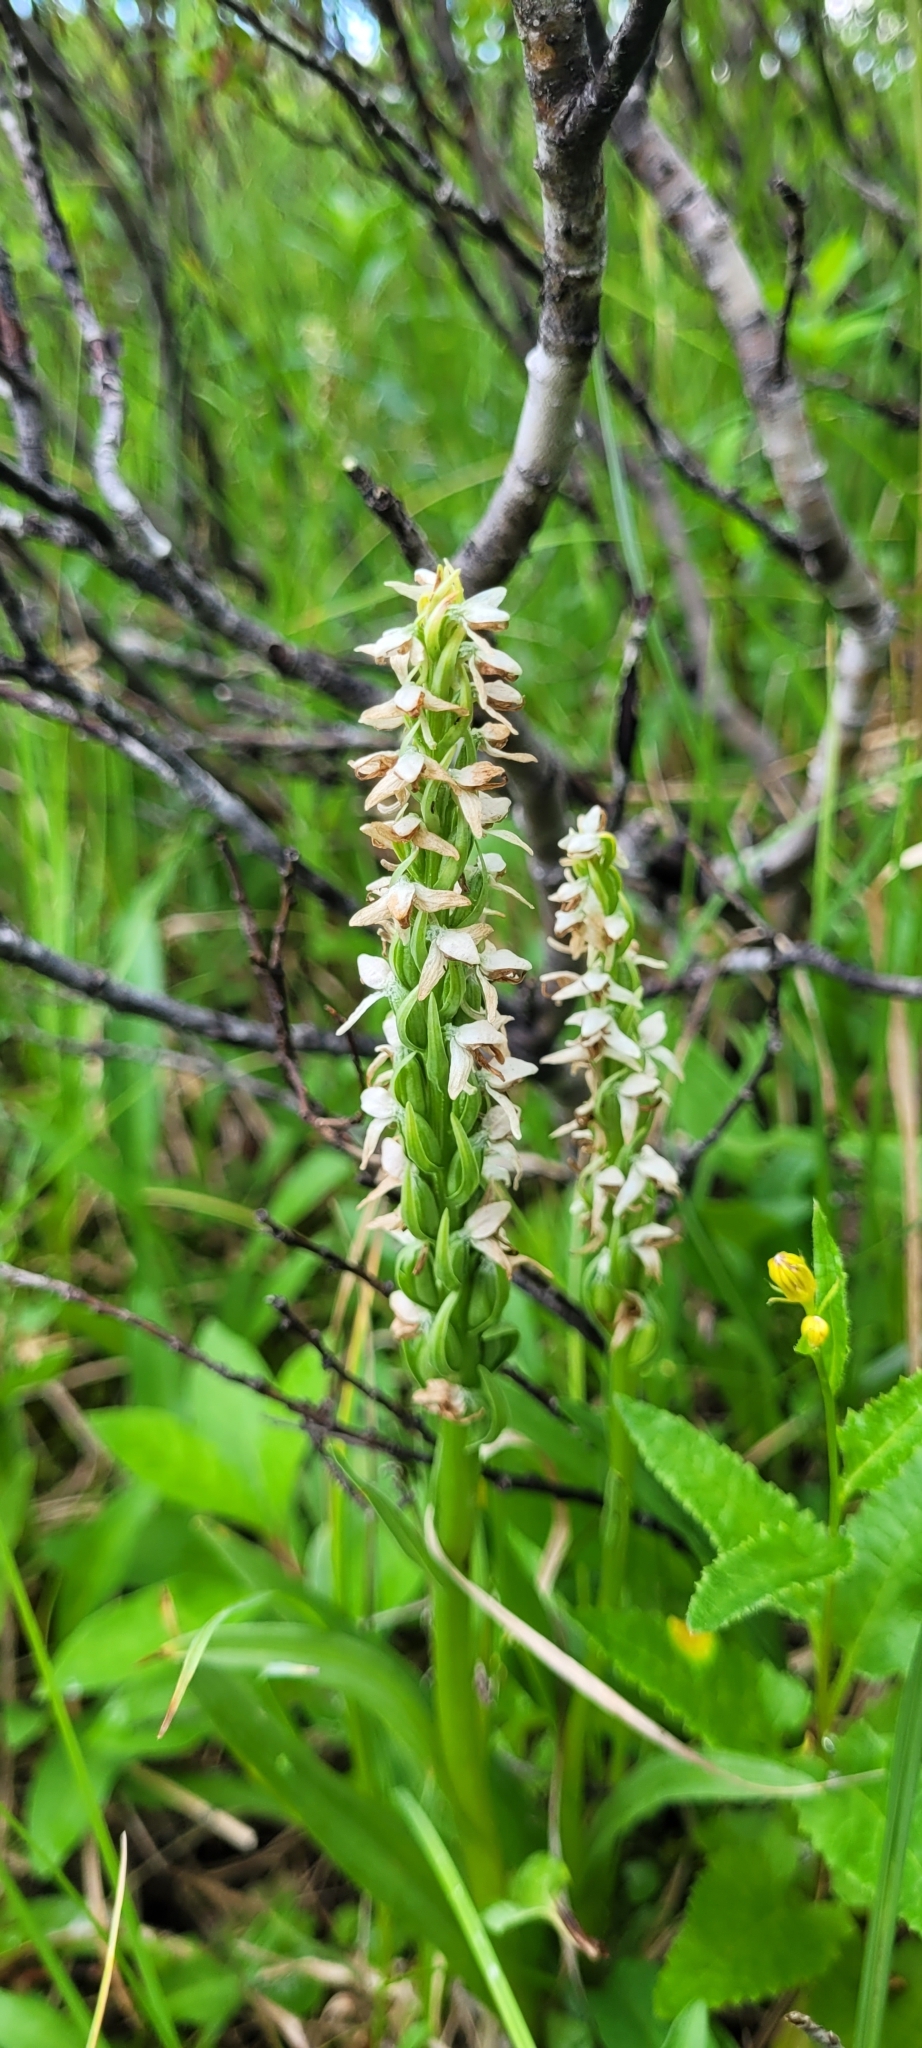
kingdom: Plantae
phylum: Tracheophyta
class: Liliopsida
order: Asparagales
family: Orchidaceae
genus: Platanthera
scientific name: Platanthera dilatata
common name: Bog candles
